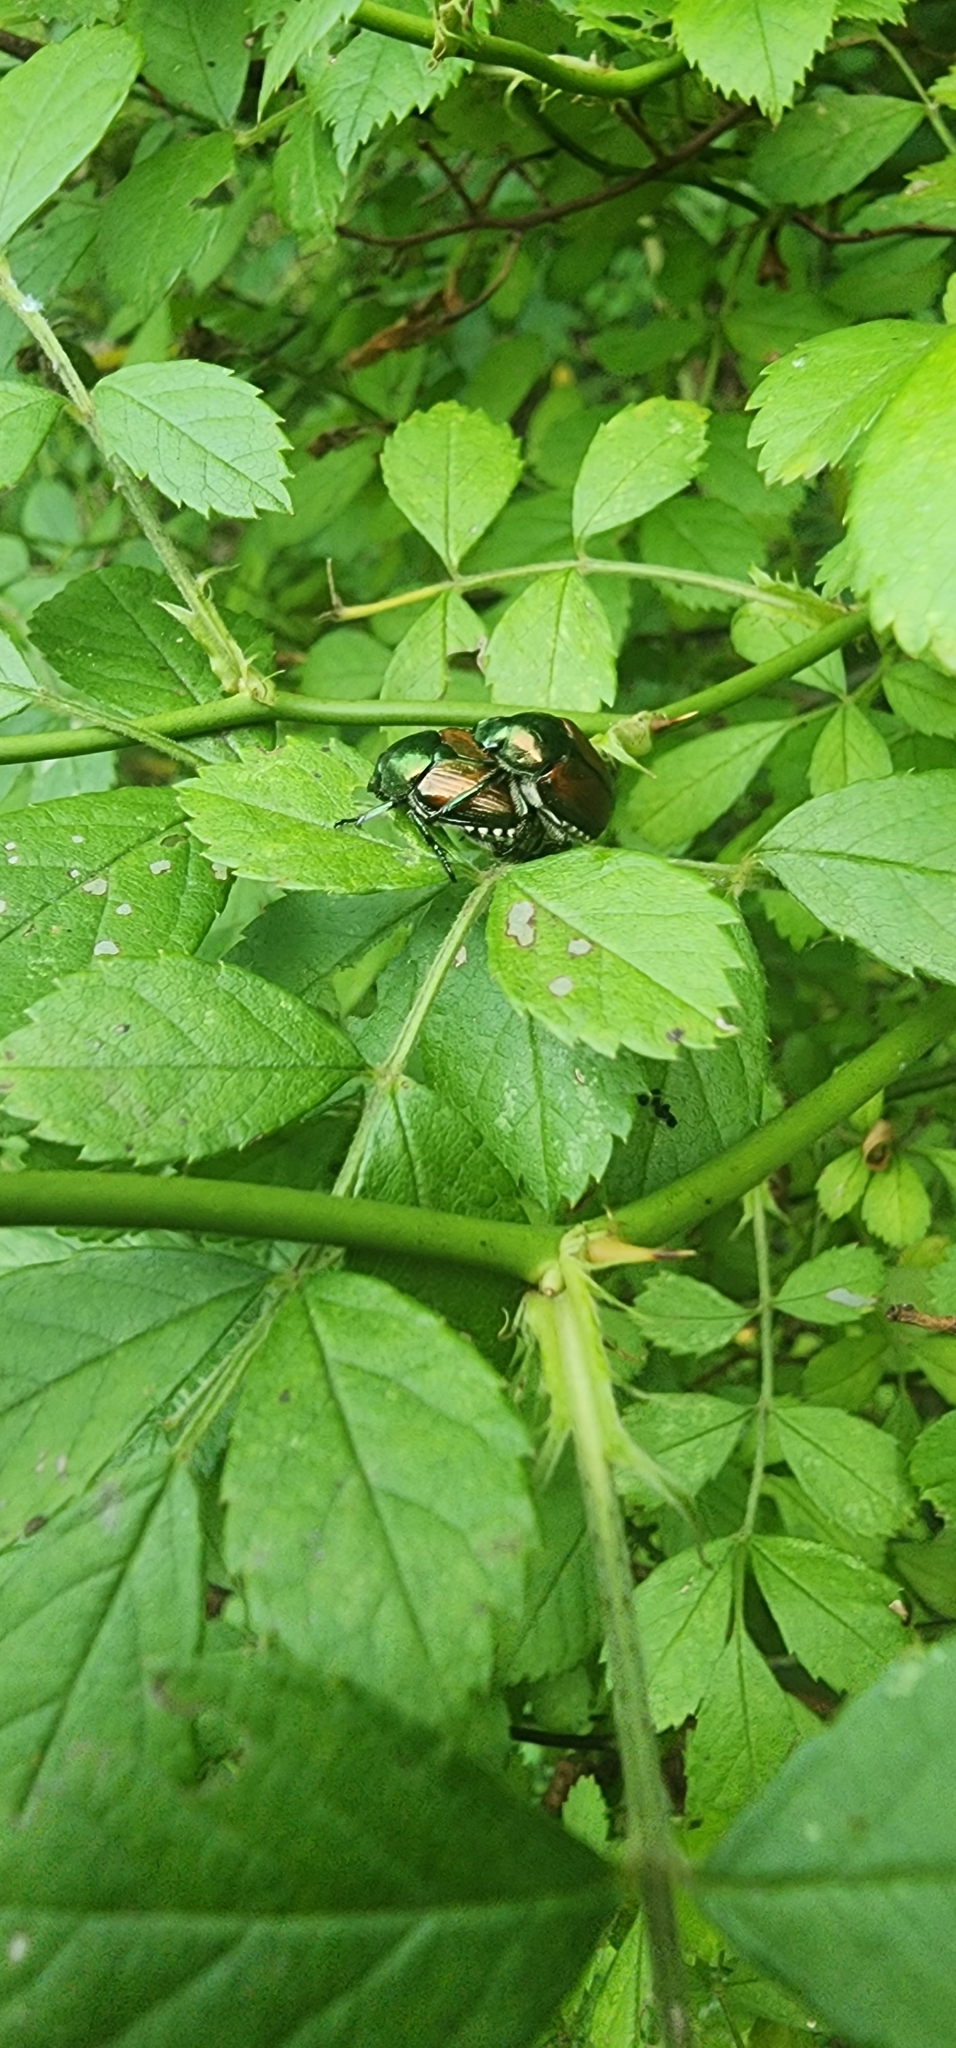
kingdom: Animalia
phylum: Arthropoda
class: Insecta
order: Coleoptera
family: Scarabaeidae
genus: Popillia
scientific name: Popillia japonica
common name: Japanese beetle
